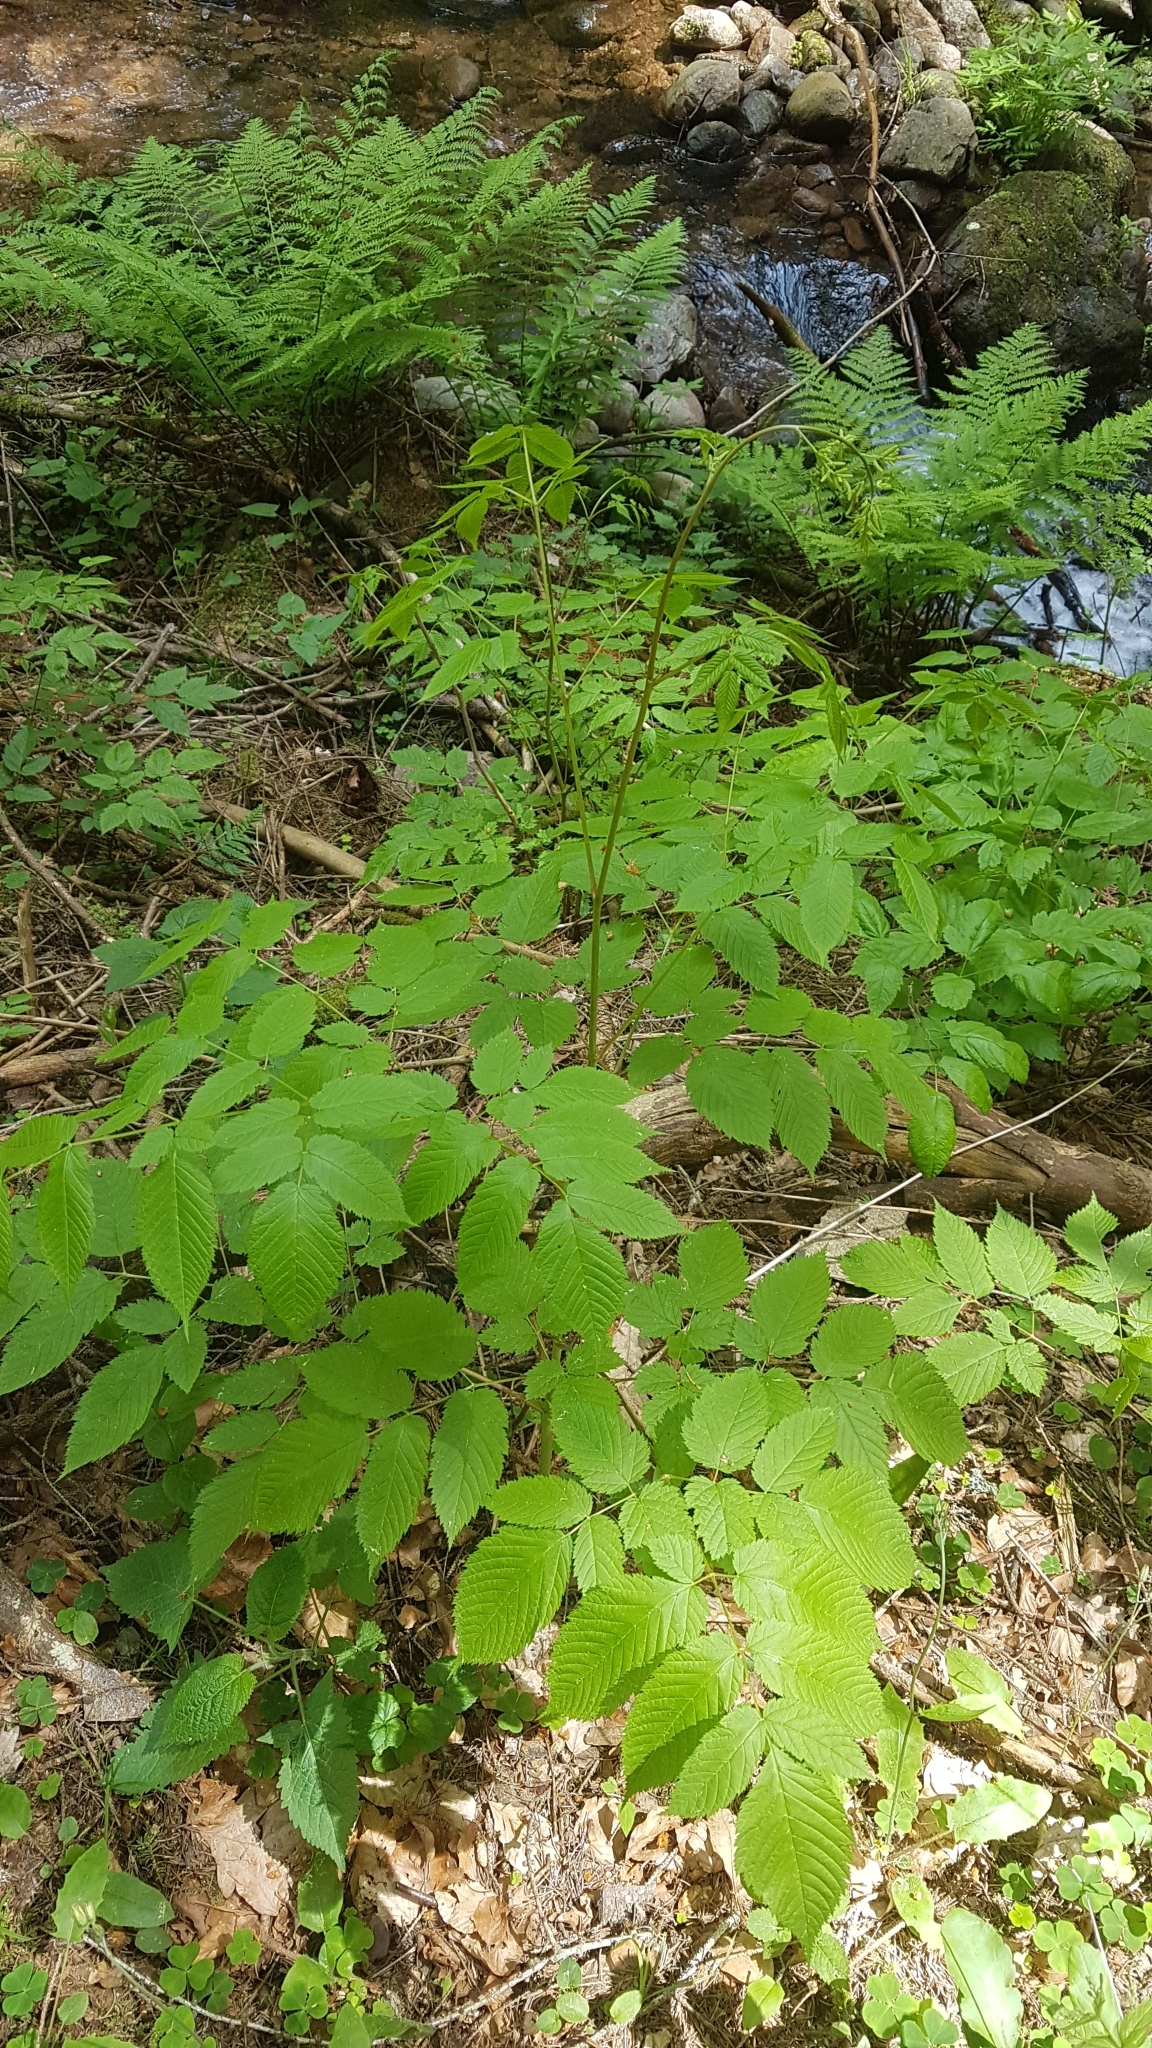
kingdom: Plantae
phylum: Tracheophyta
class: Magnoliopsida
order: Rosales
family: Rosaceae
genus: Aruncus
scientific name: Aruncus dioicus
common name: Buck's-beard
